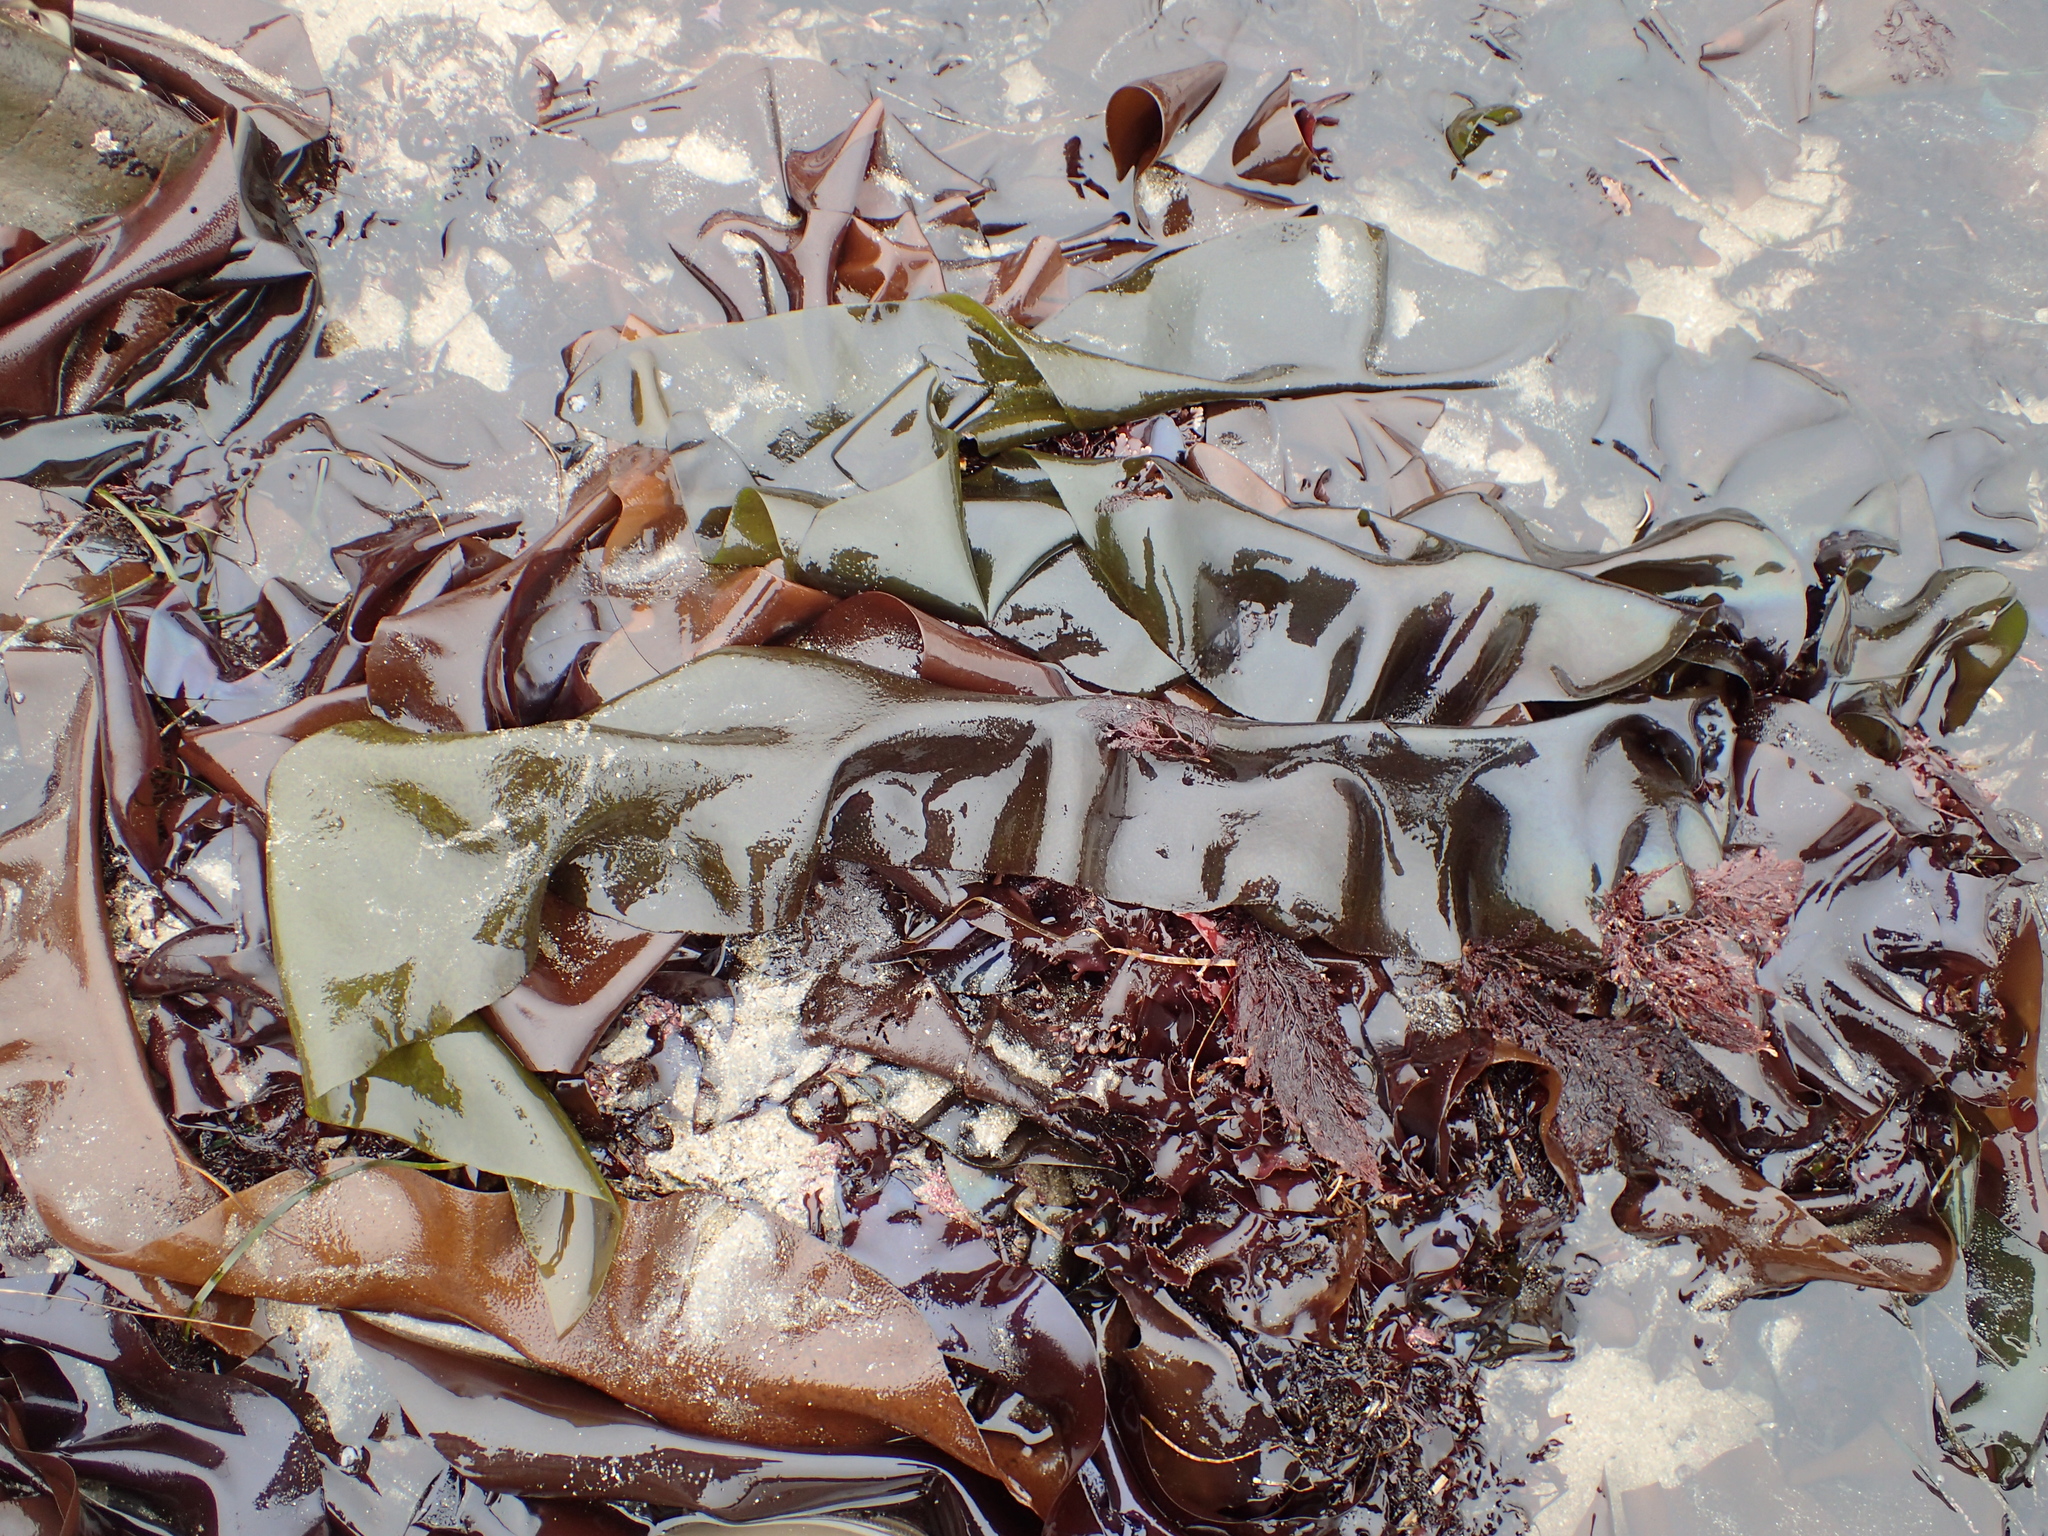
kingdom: Plantae
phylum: Rhodophyta
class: Florideophyceae
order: Gigartinales
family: Gigartinaceae
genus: Mazzaella
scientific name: Mazzaella flaccida
